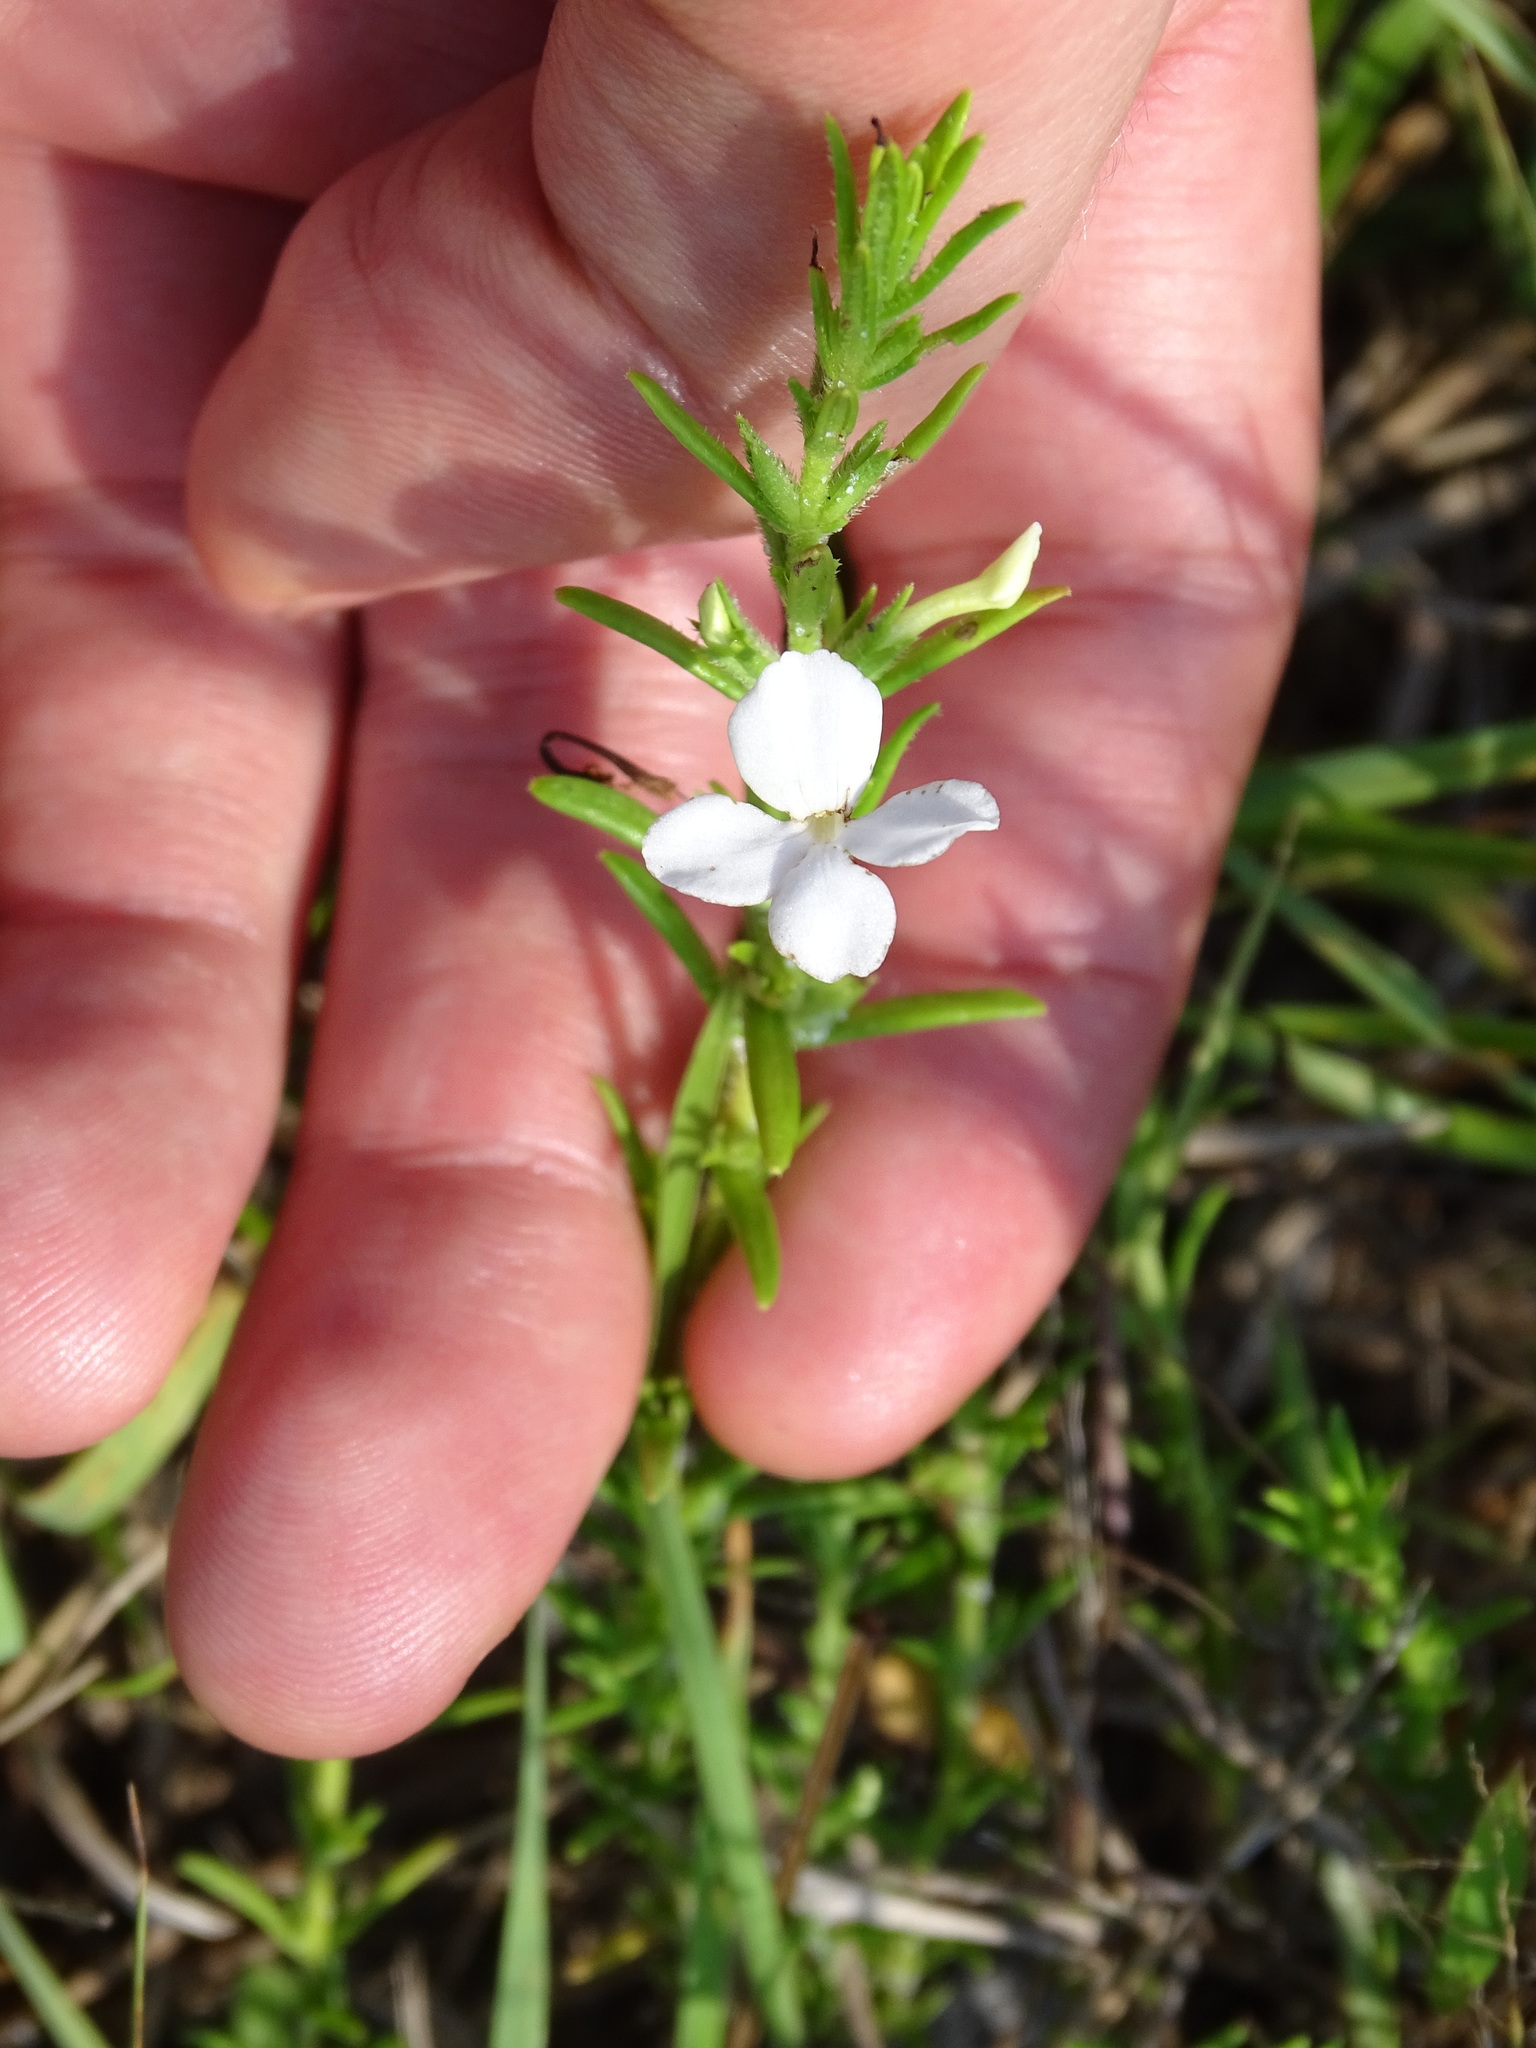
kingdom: Plantae
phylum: Tracheophyta
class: Magnoliopsida
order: Lamiales
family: Plantaginaceae
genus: Gratiola
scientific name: Gratiola hispida
